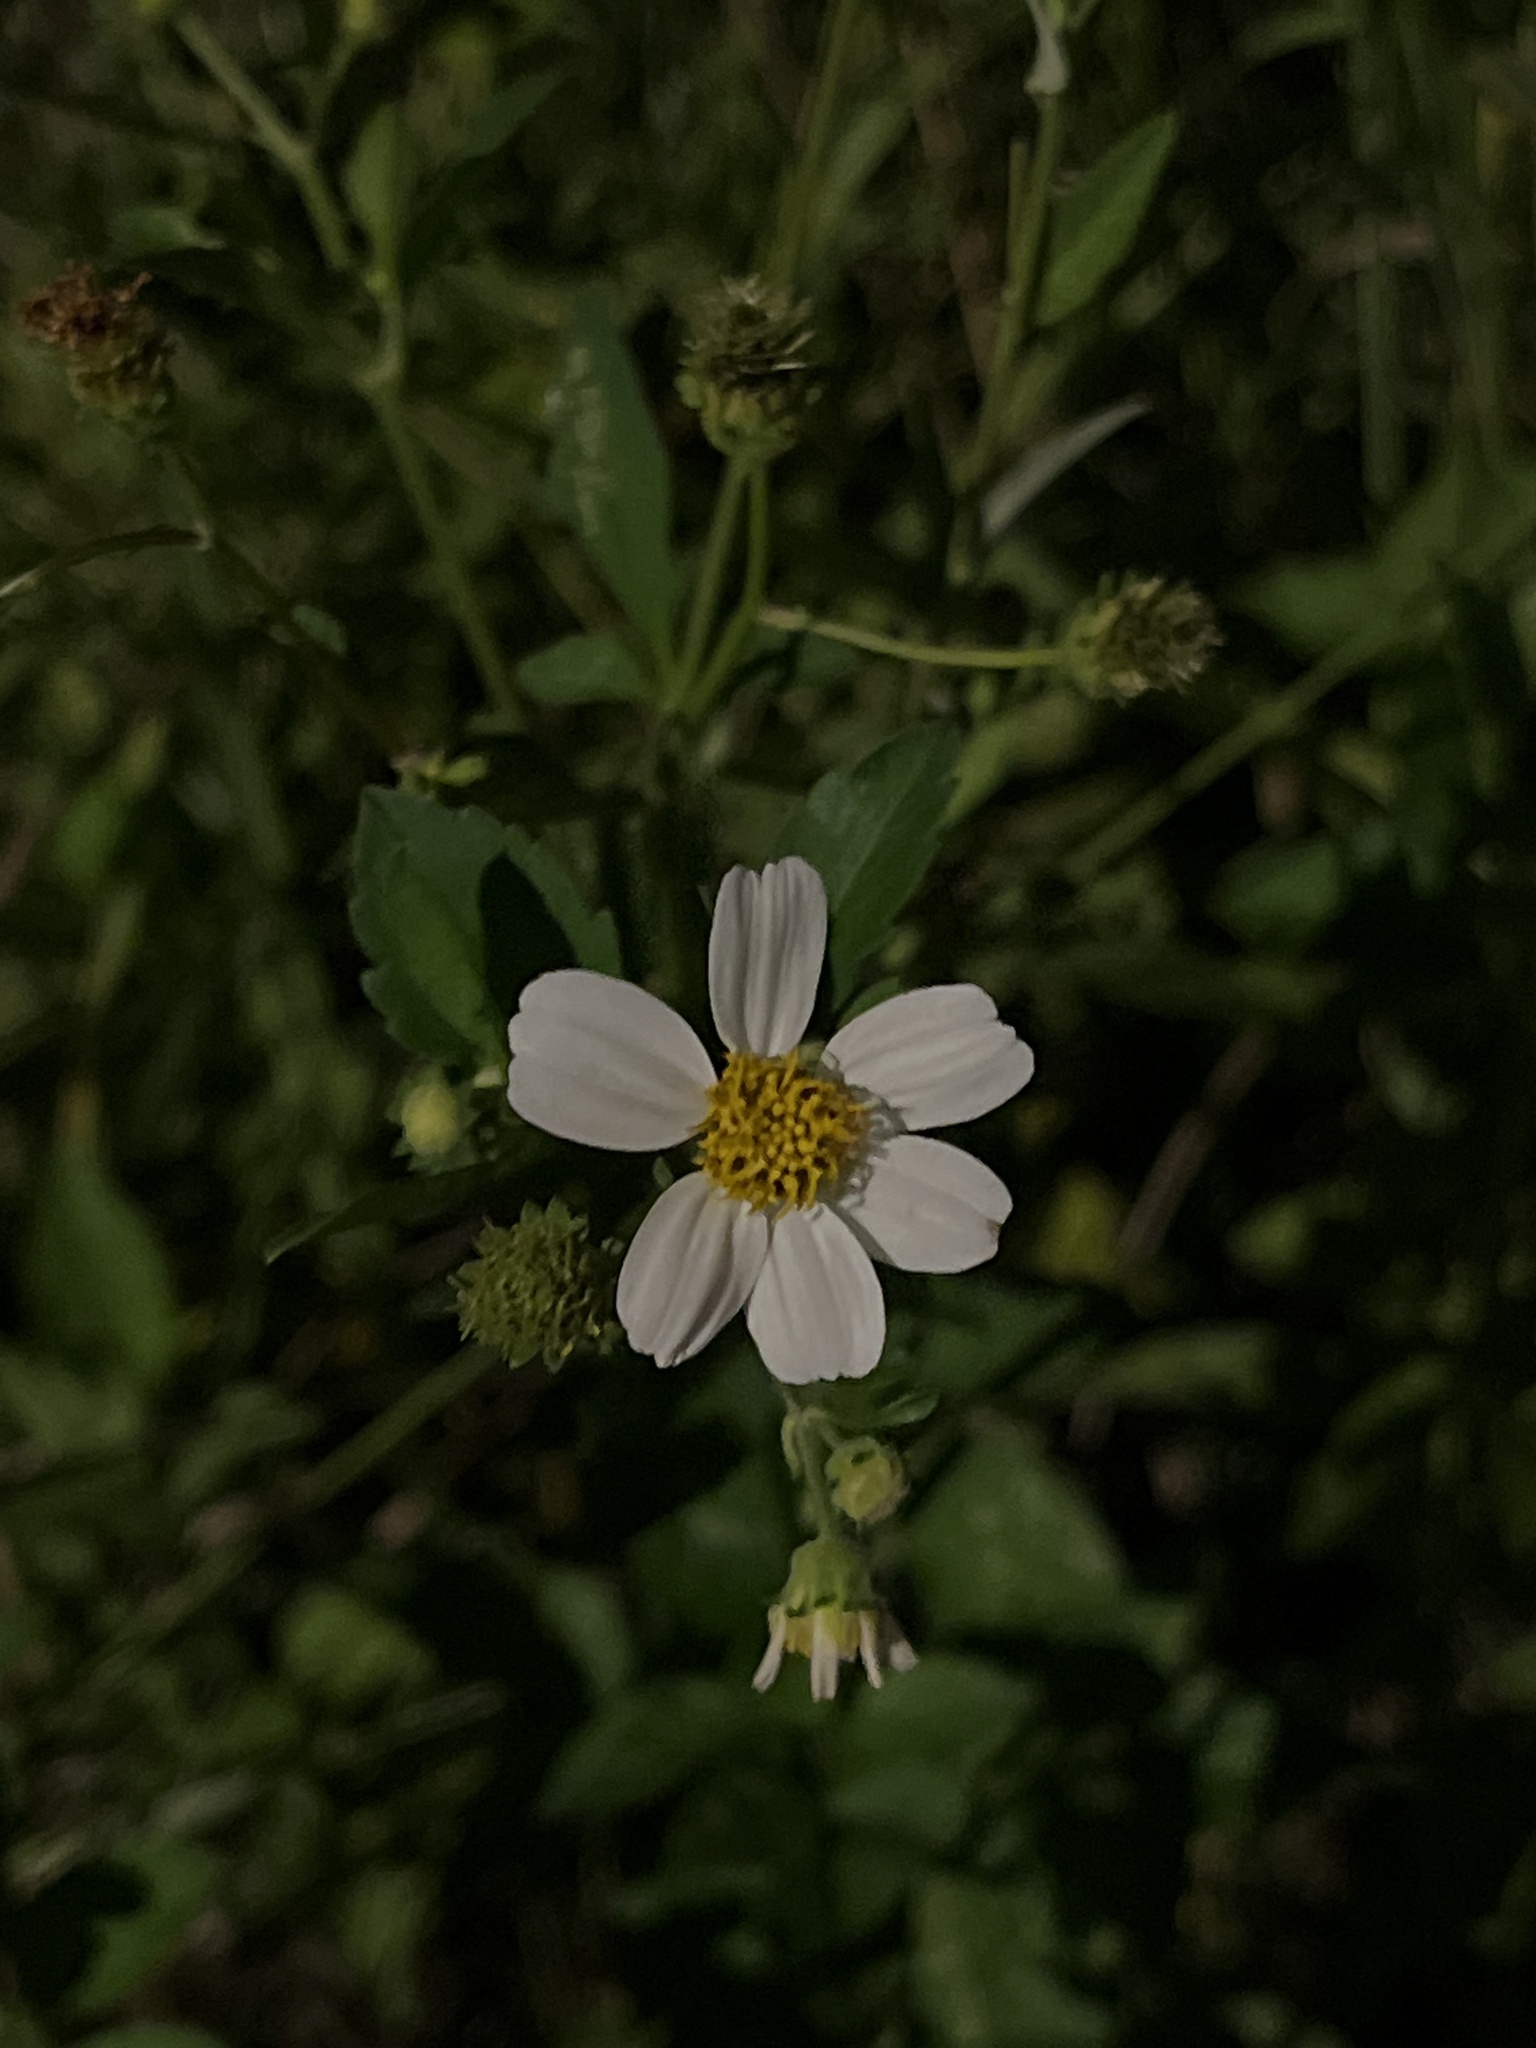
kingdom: Plantae
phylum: Tracheophyta
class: Magnoliopsida
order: Asterales
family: Asteraceae
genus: Bidens
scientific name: Bidens alba
